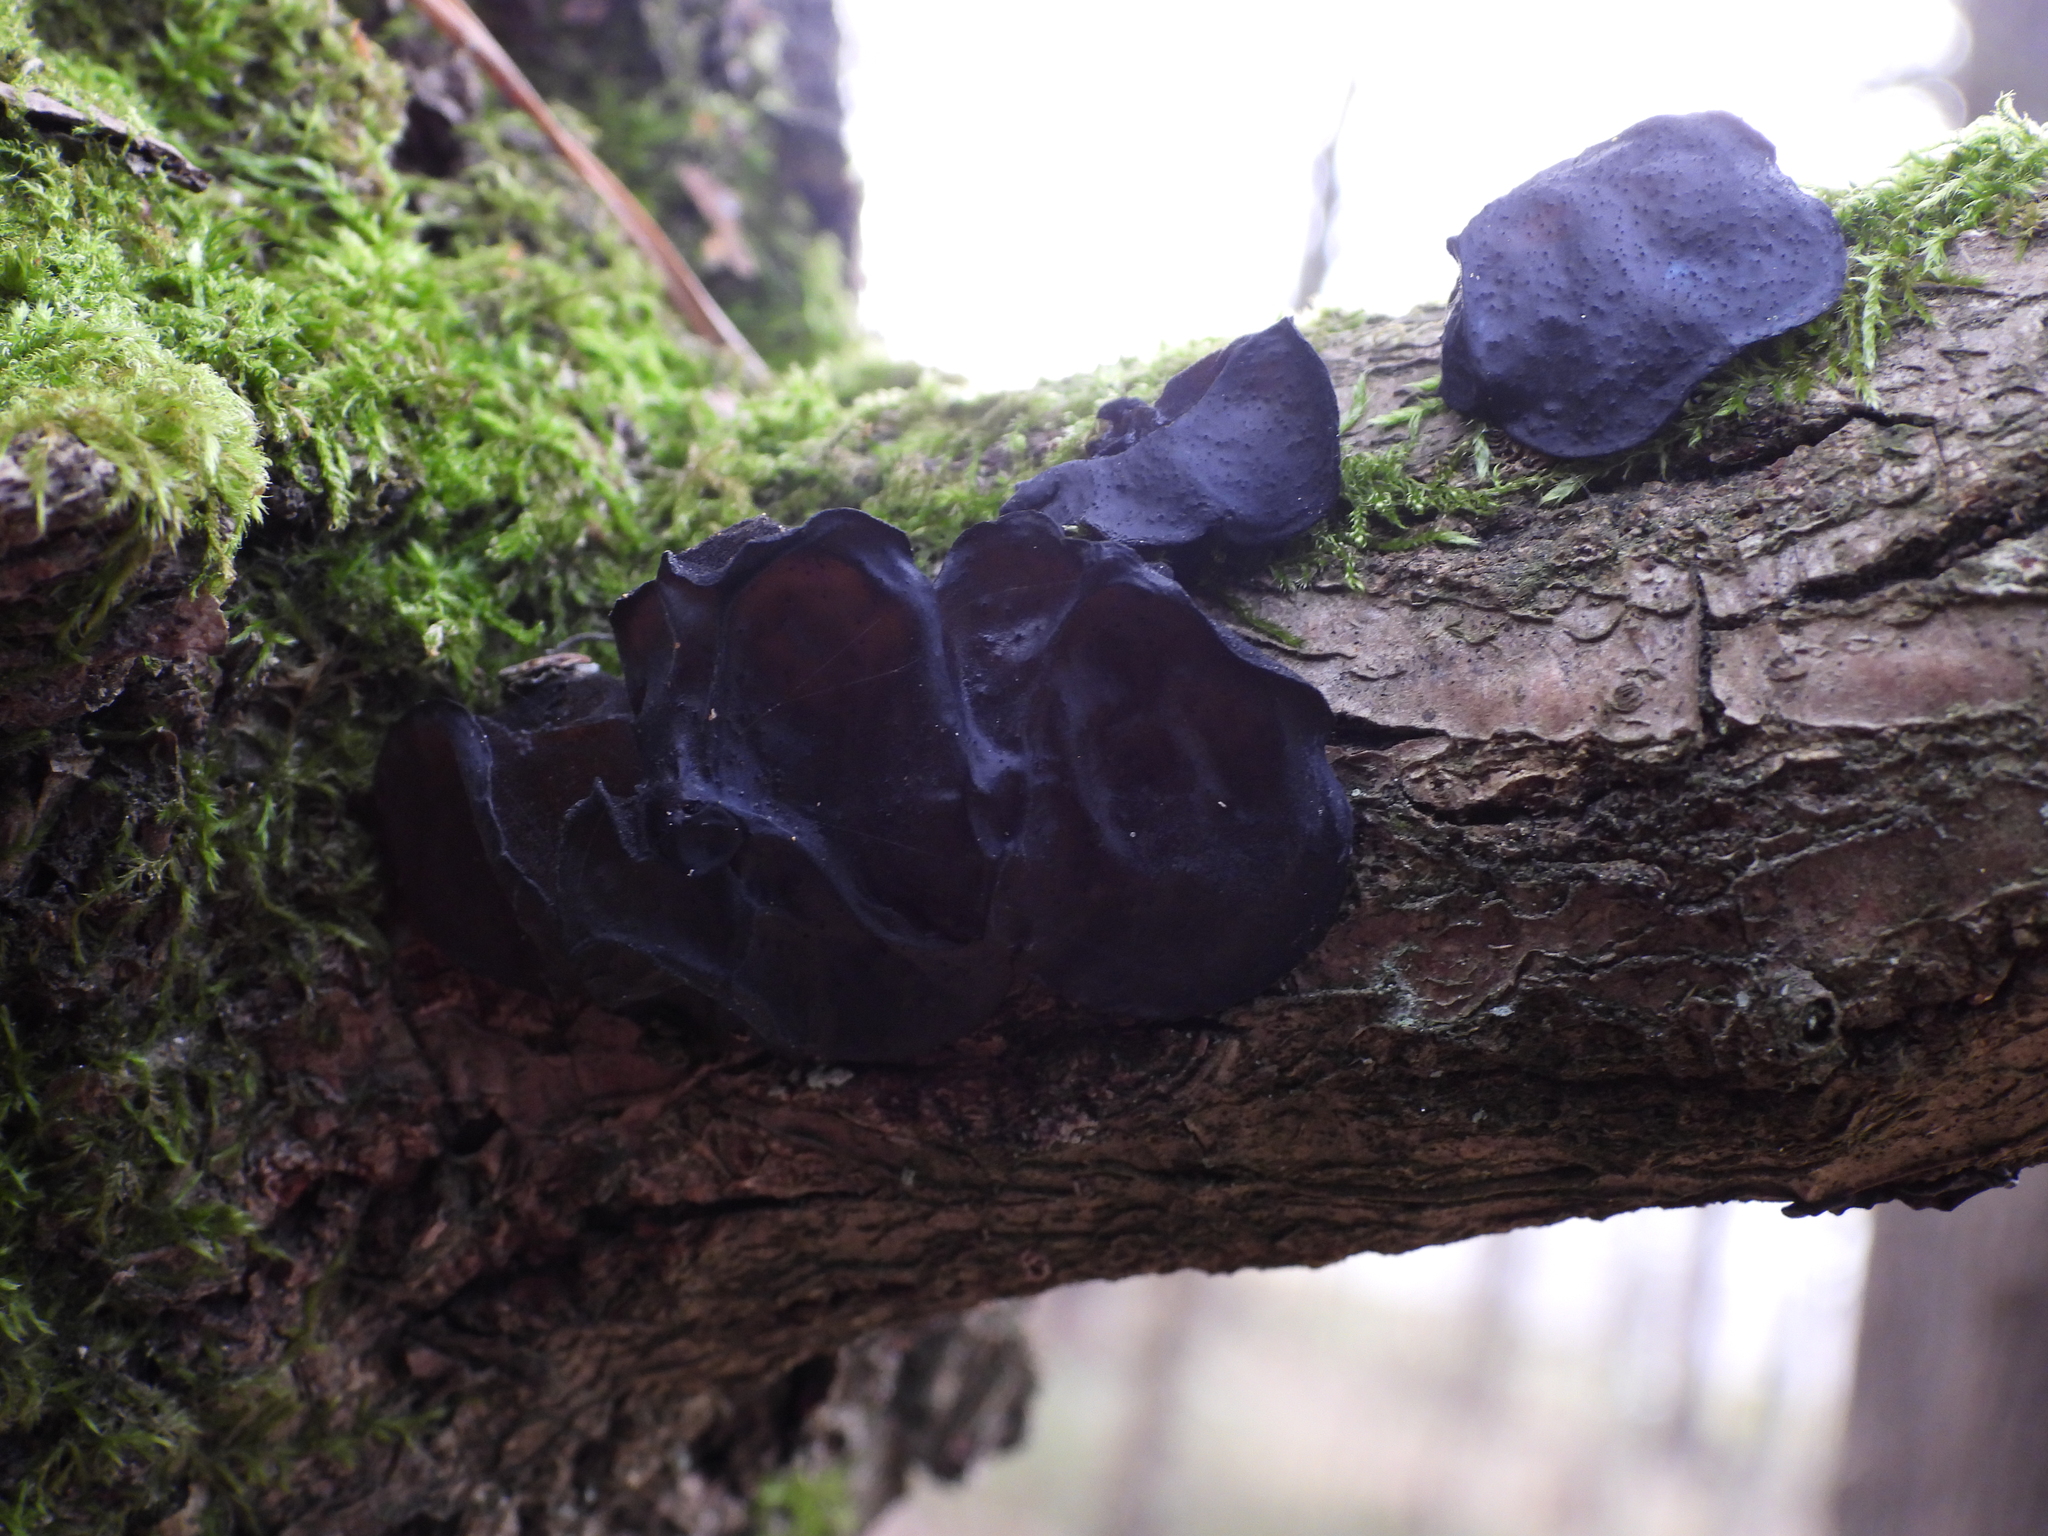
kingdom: Fungi
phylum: Basidiomycota
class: Agaricomycetes
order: Auriculariales
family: Auriculariaceae
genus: Exidia
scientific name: Exidia glandulosa
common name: Witches' butter
